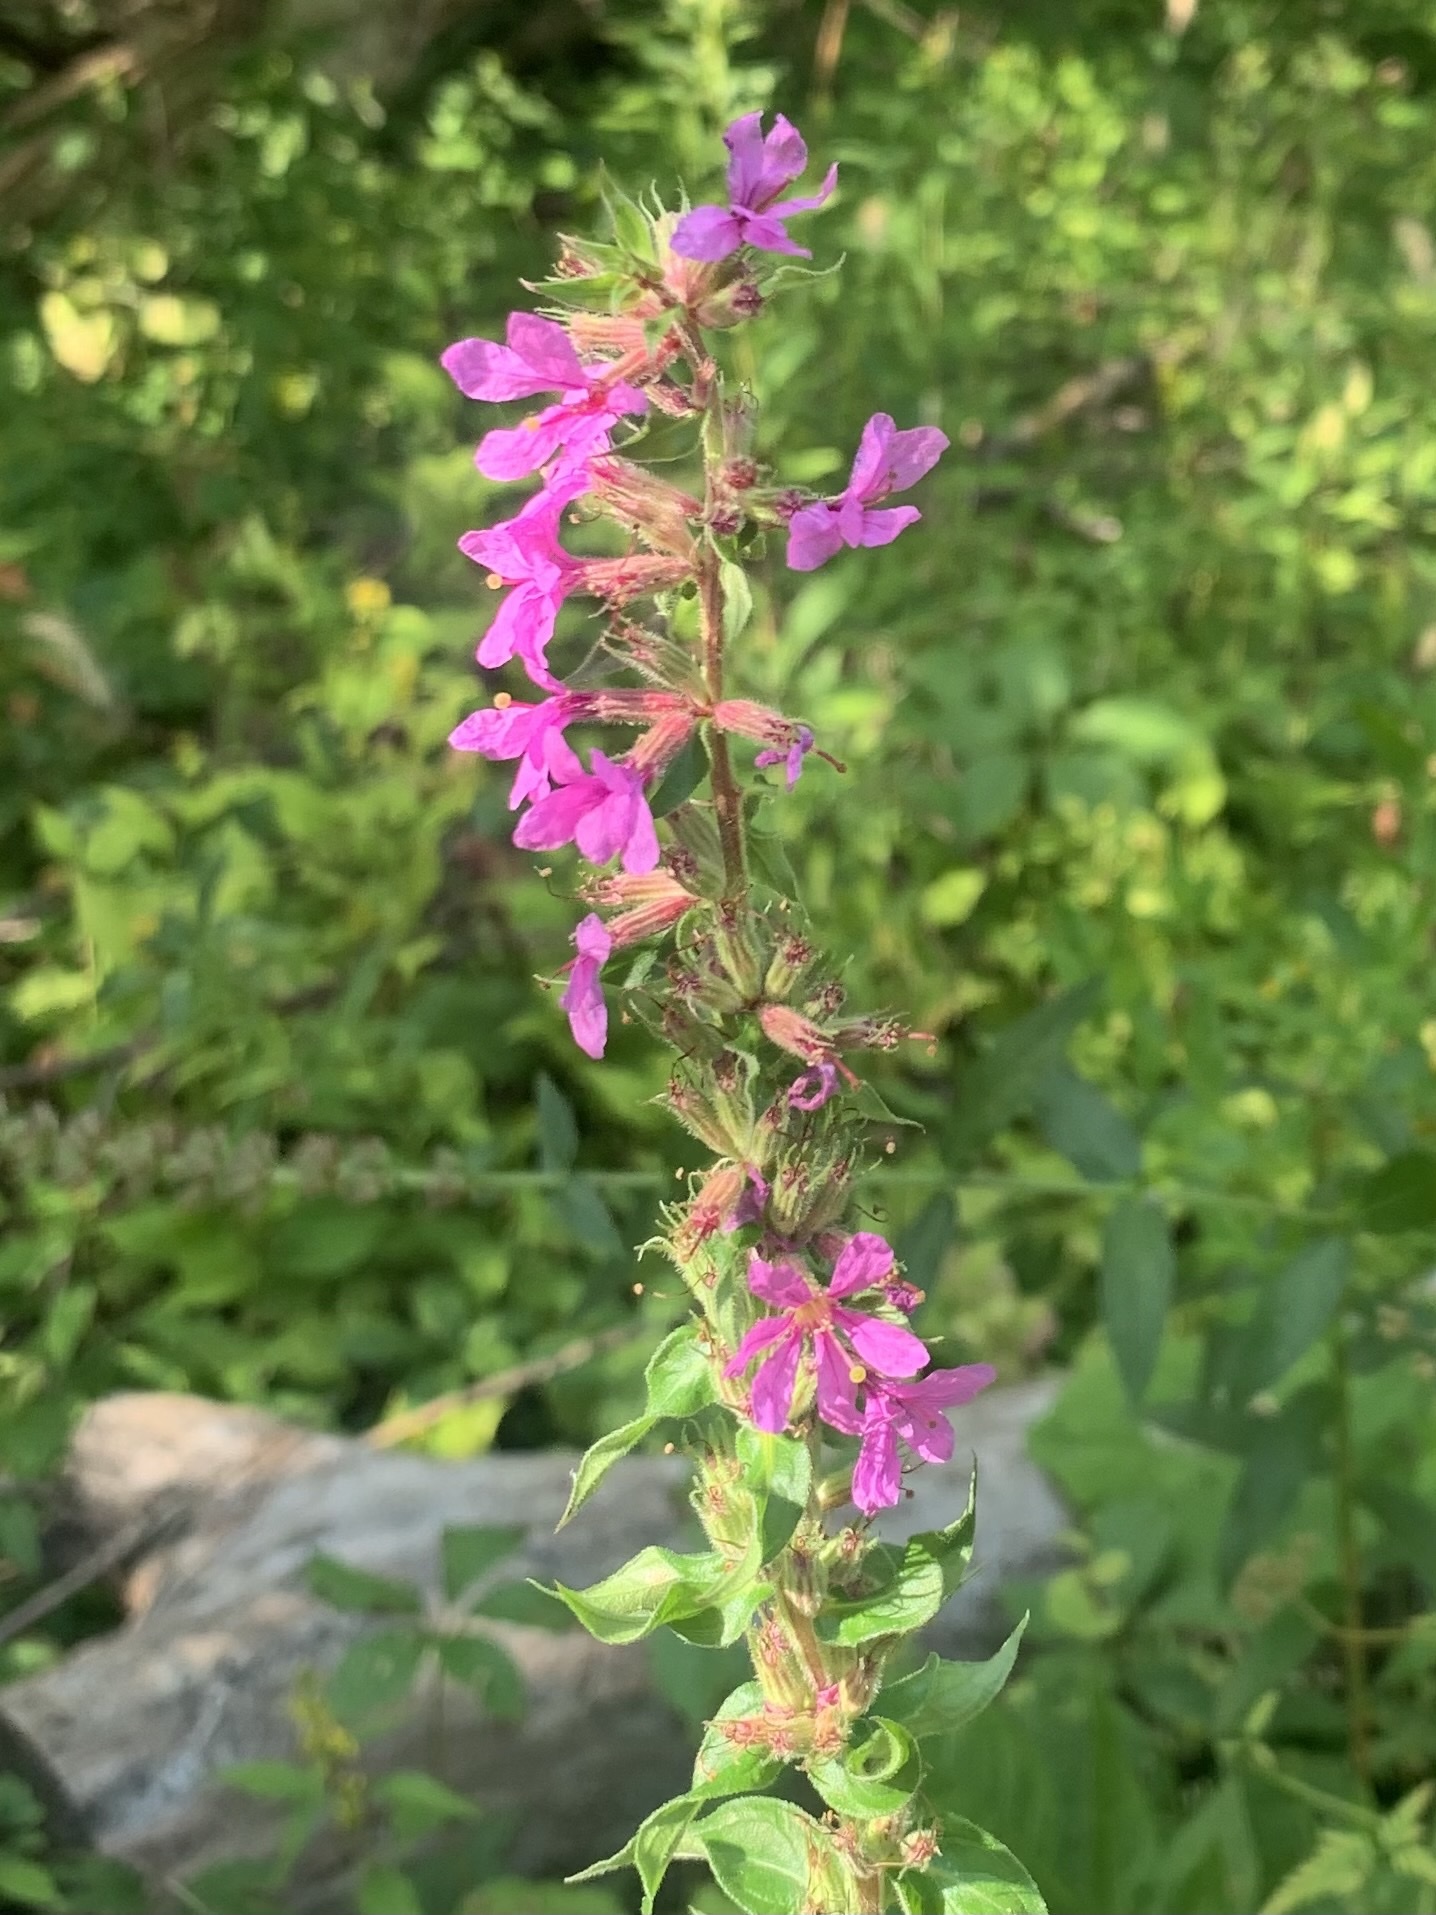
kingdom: Plantae
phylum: Tracheophyta
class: Magnoliopsida
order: Myrtales
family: Lythraceae
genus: Lythrum
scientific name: Lythrum salicaria
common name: Purple loosestrife
